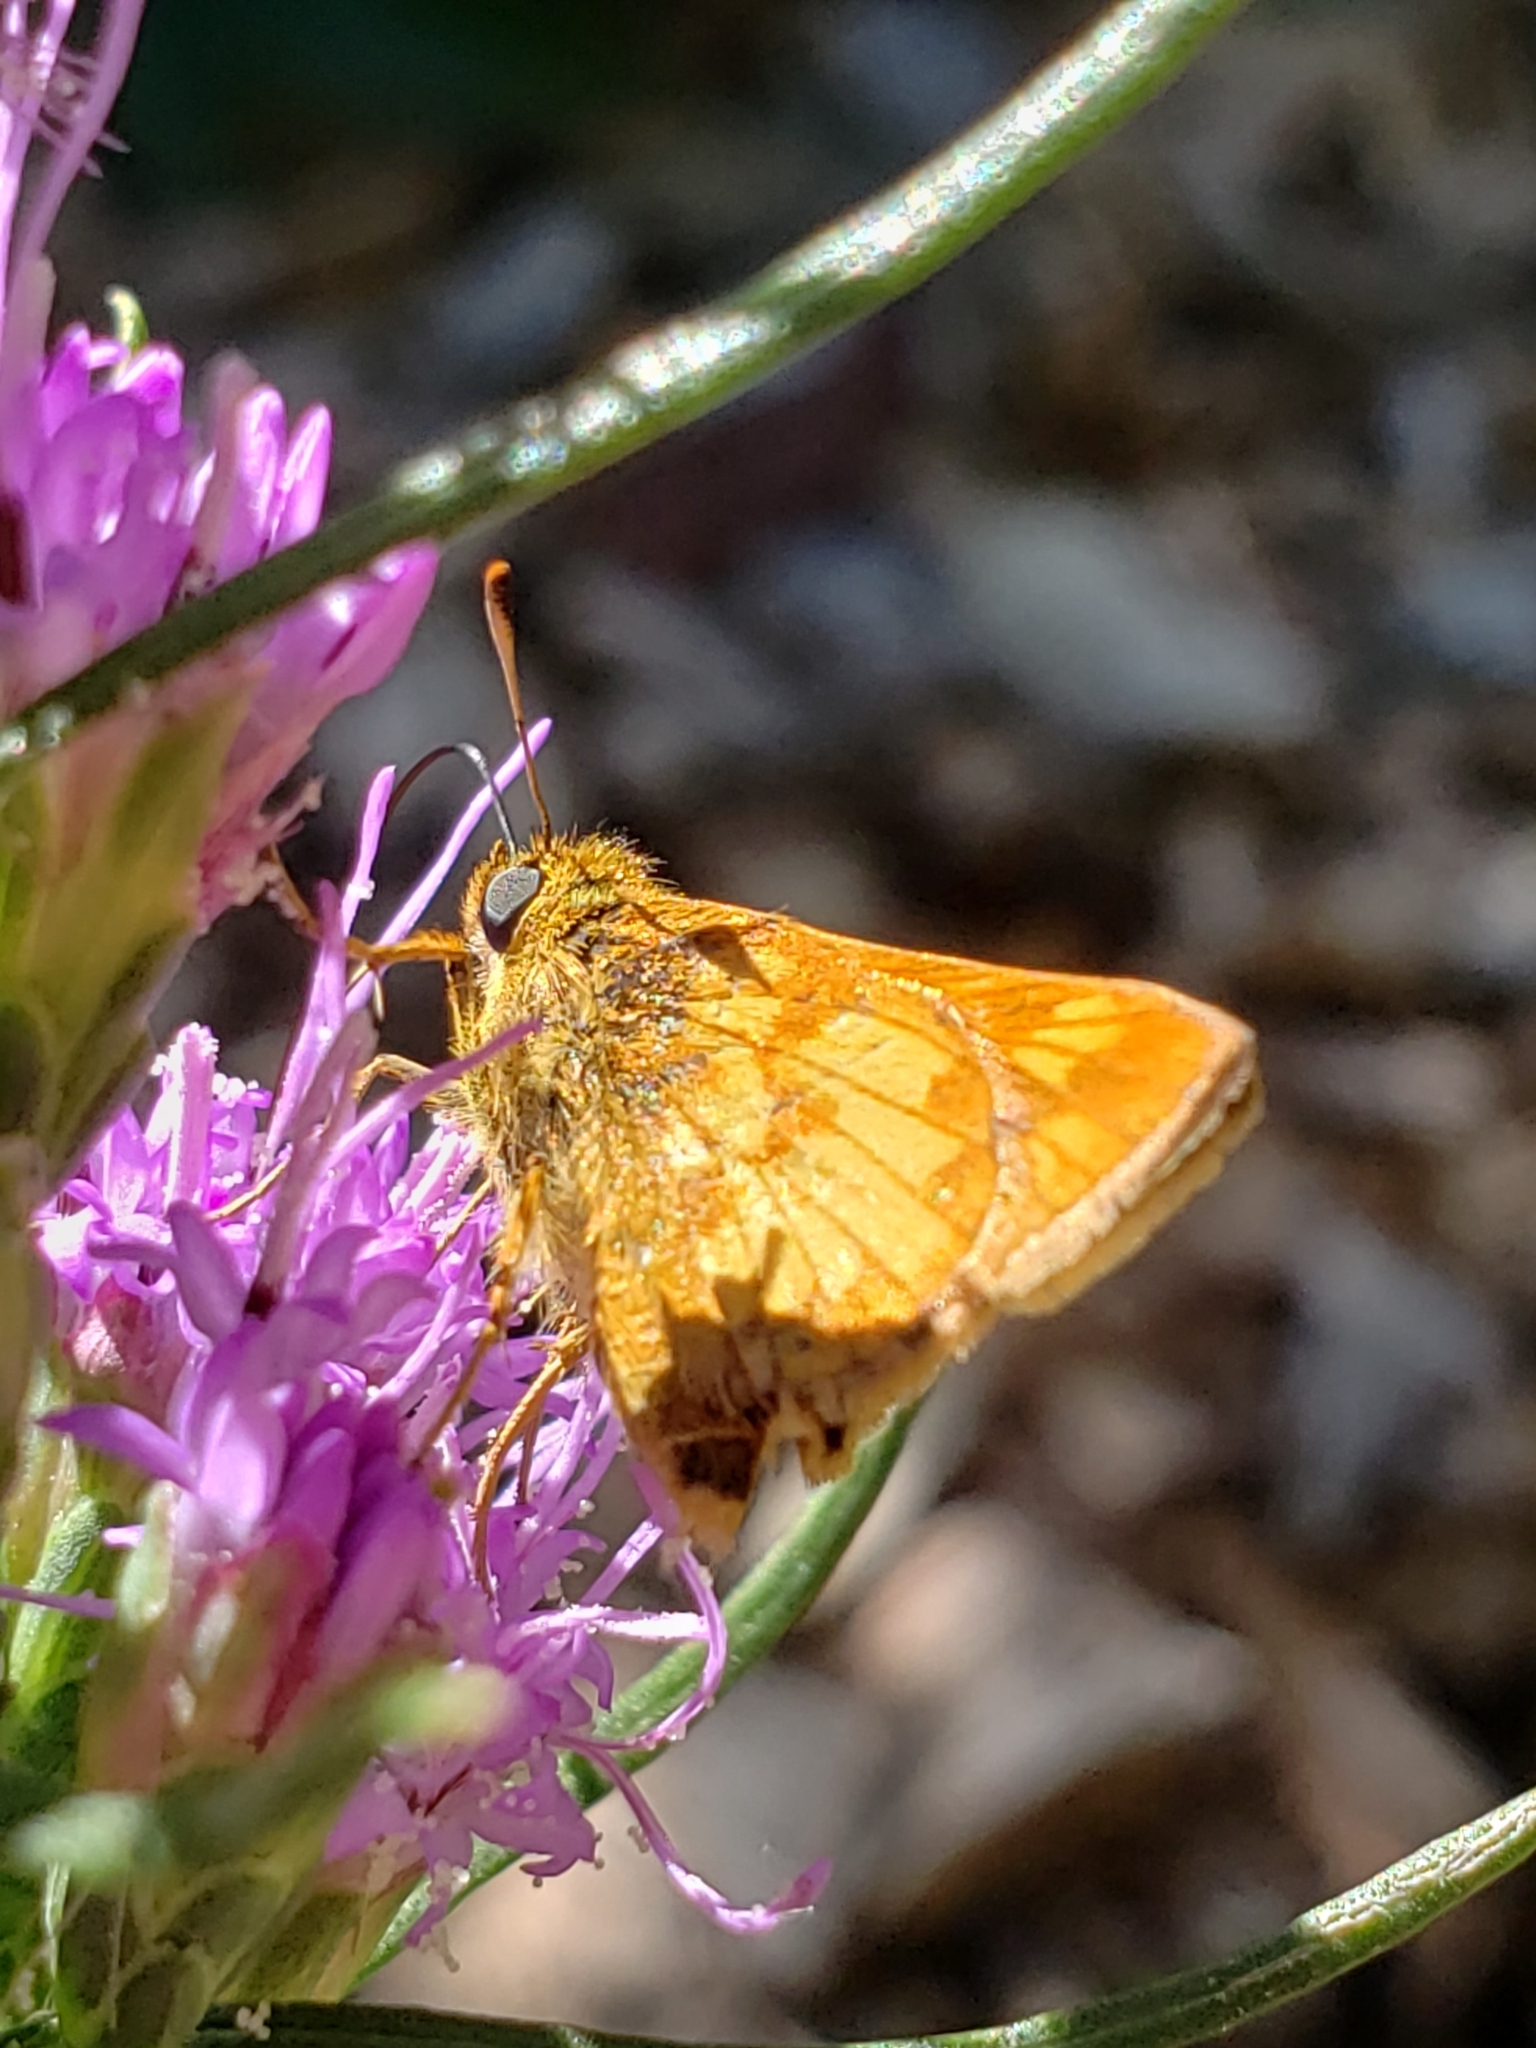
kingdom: Animalia
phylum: Arthropoda
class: Insecta
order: Lepidoptera
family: Hesperiidae
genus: Polites
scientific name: Polites coras
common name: Peck's skipper
